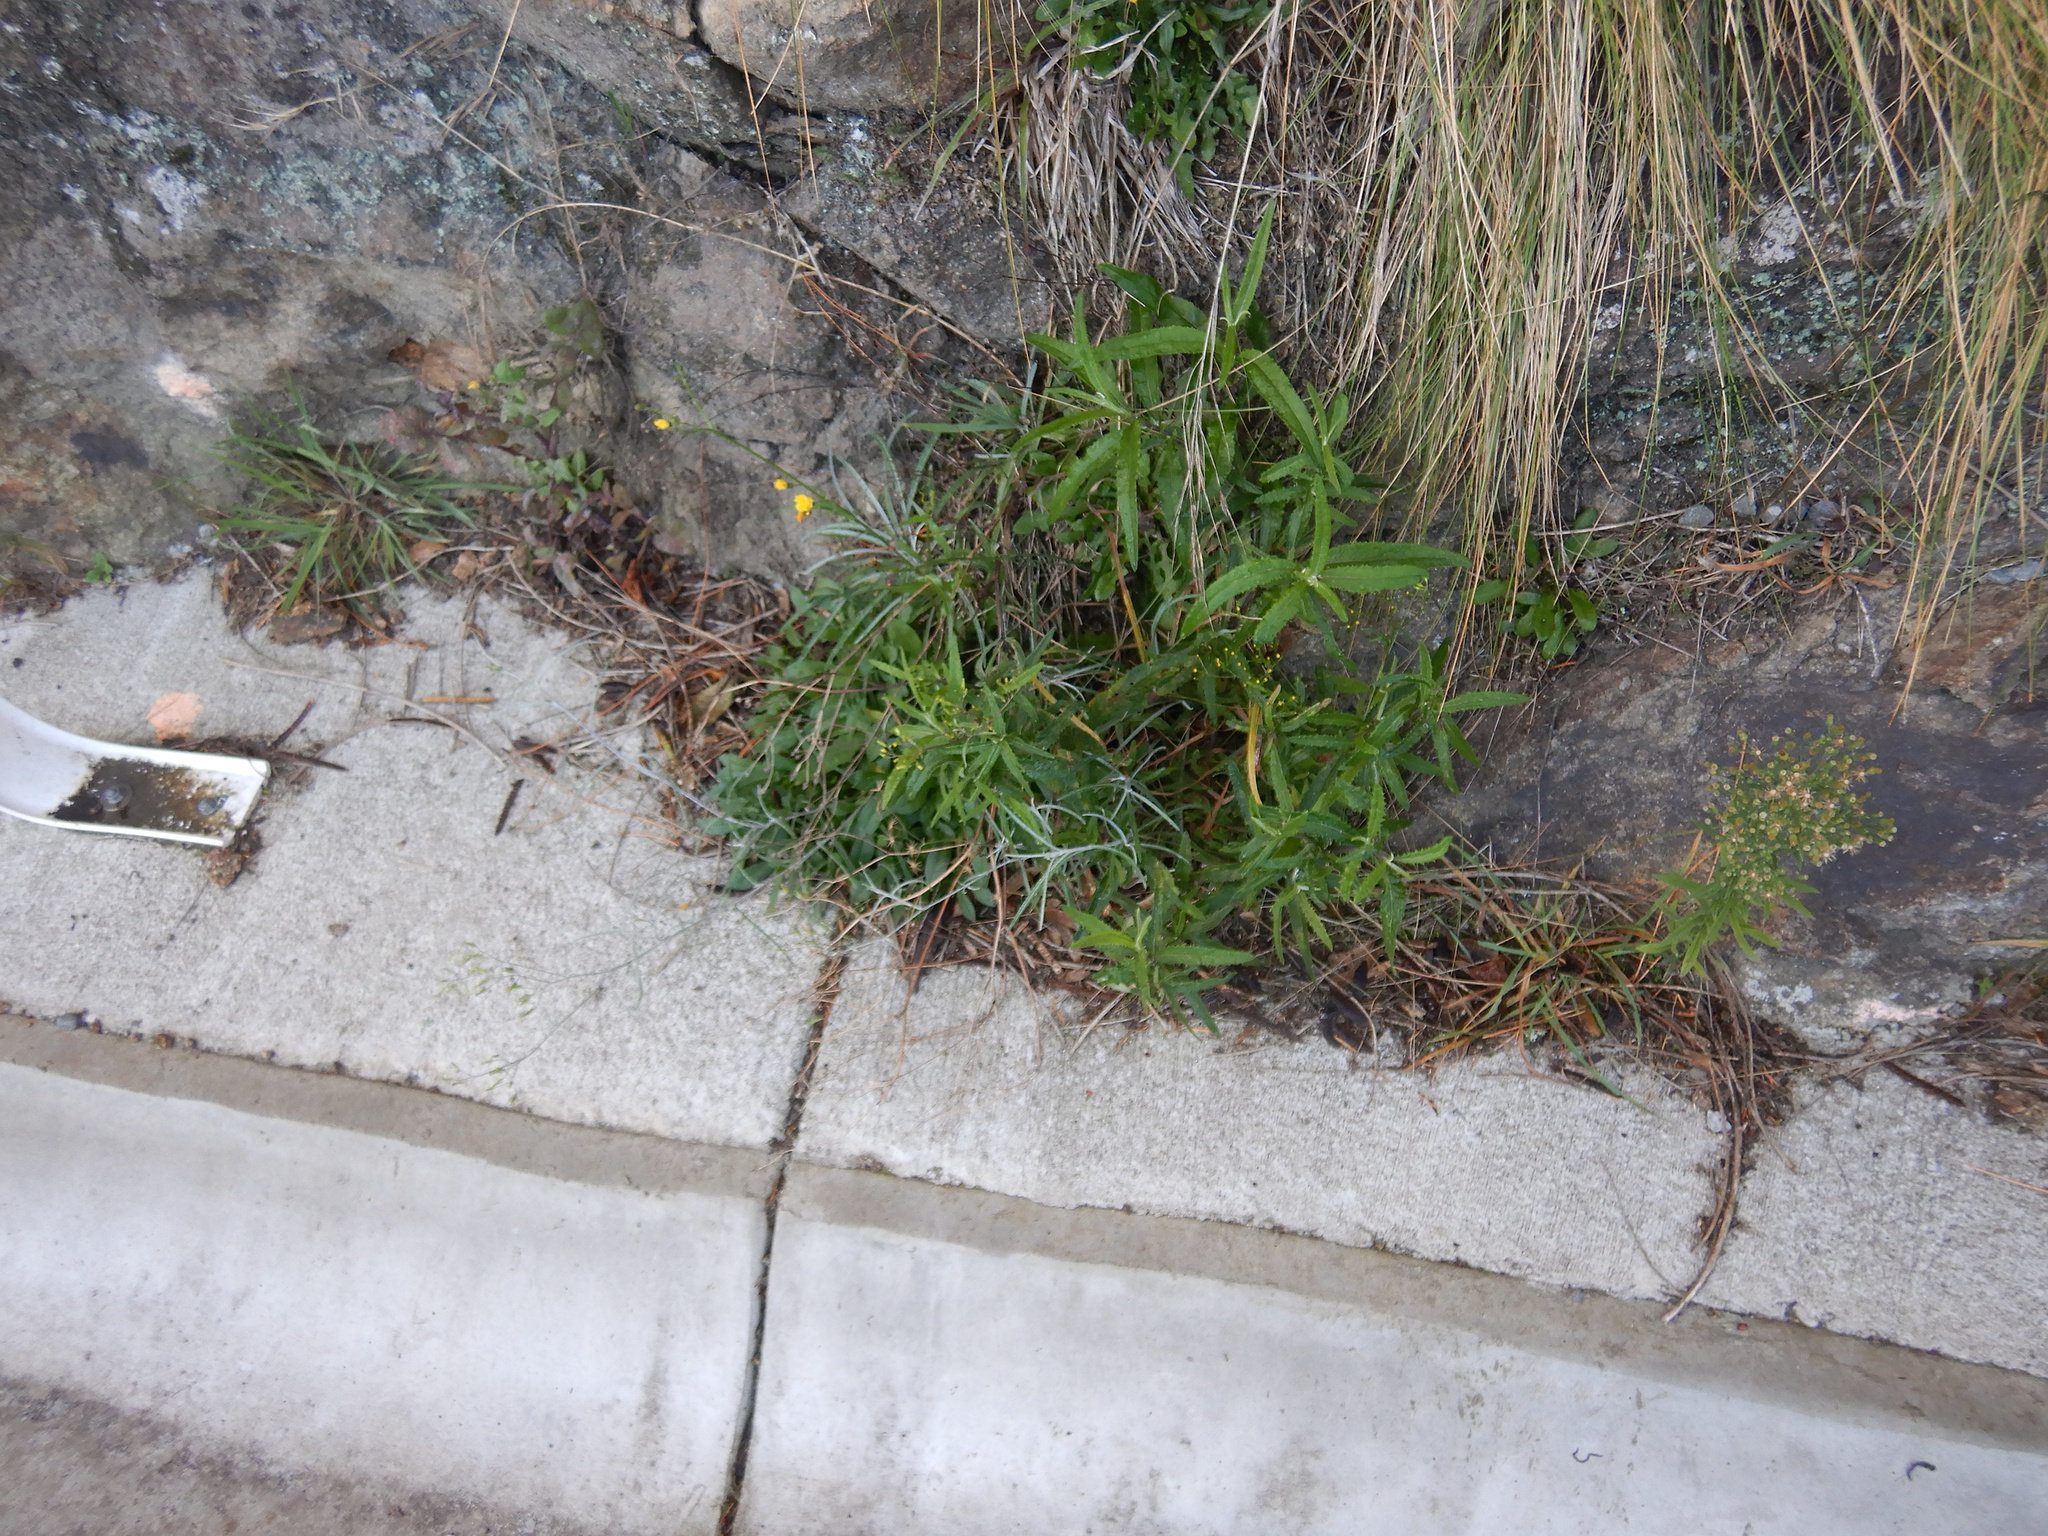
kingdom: Plantae
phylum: Tracheophyta
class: Magnoliopsida
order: Asterales
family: Asteraceae
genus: Senecio
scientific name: Senecio minimus
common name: Toothed fireweed
